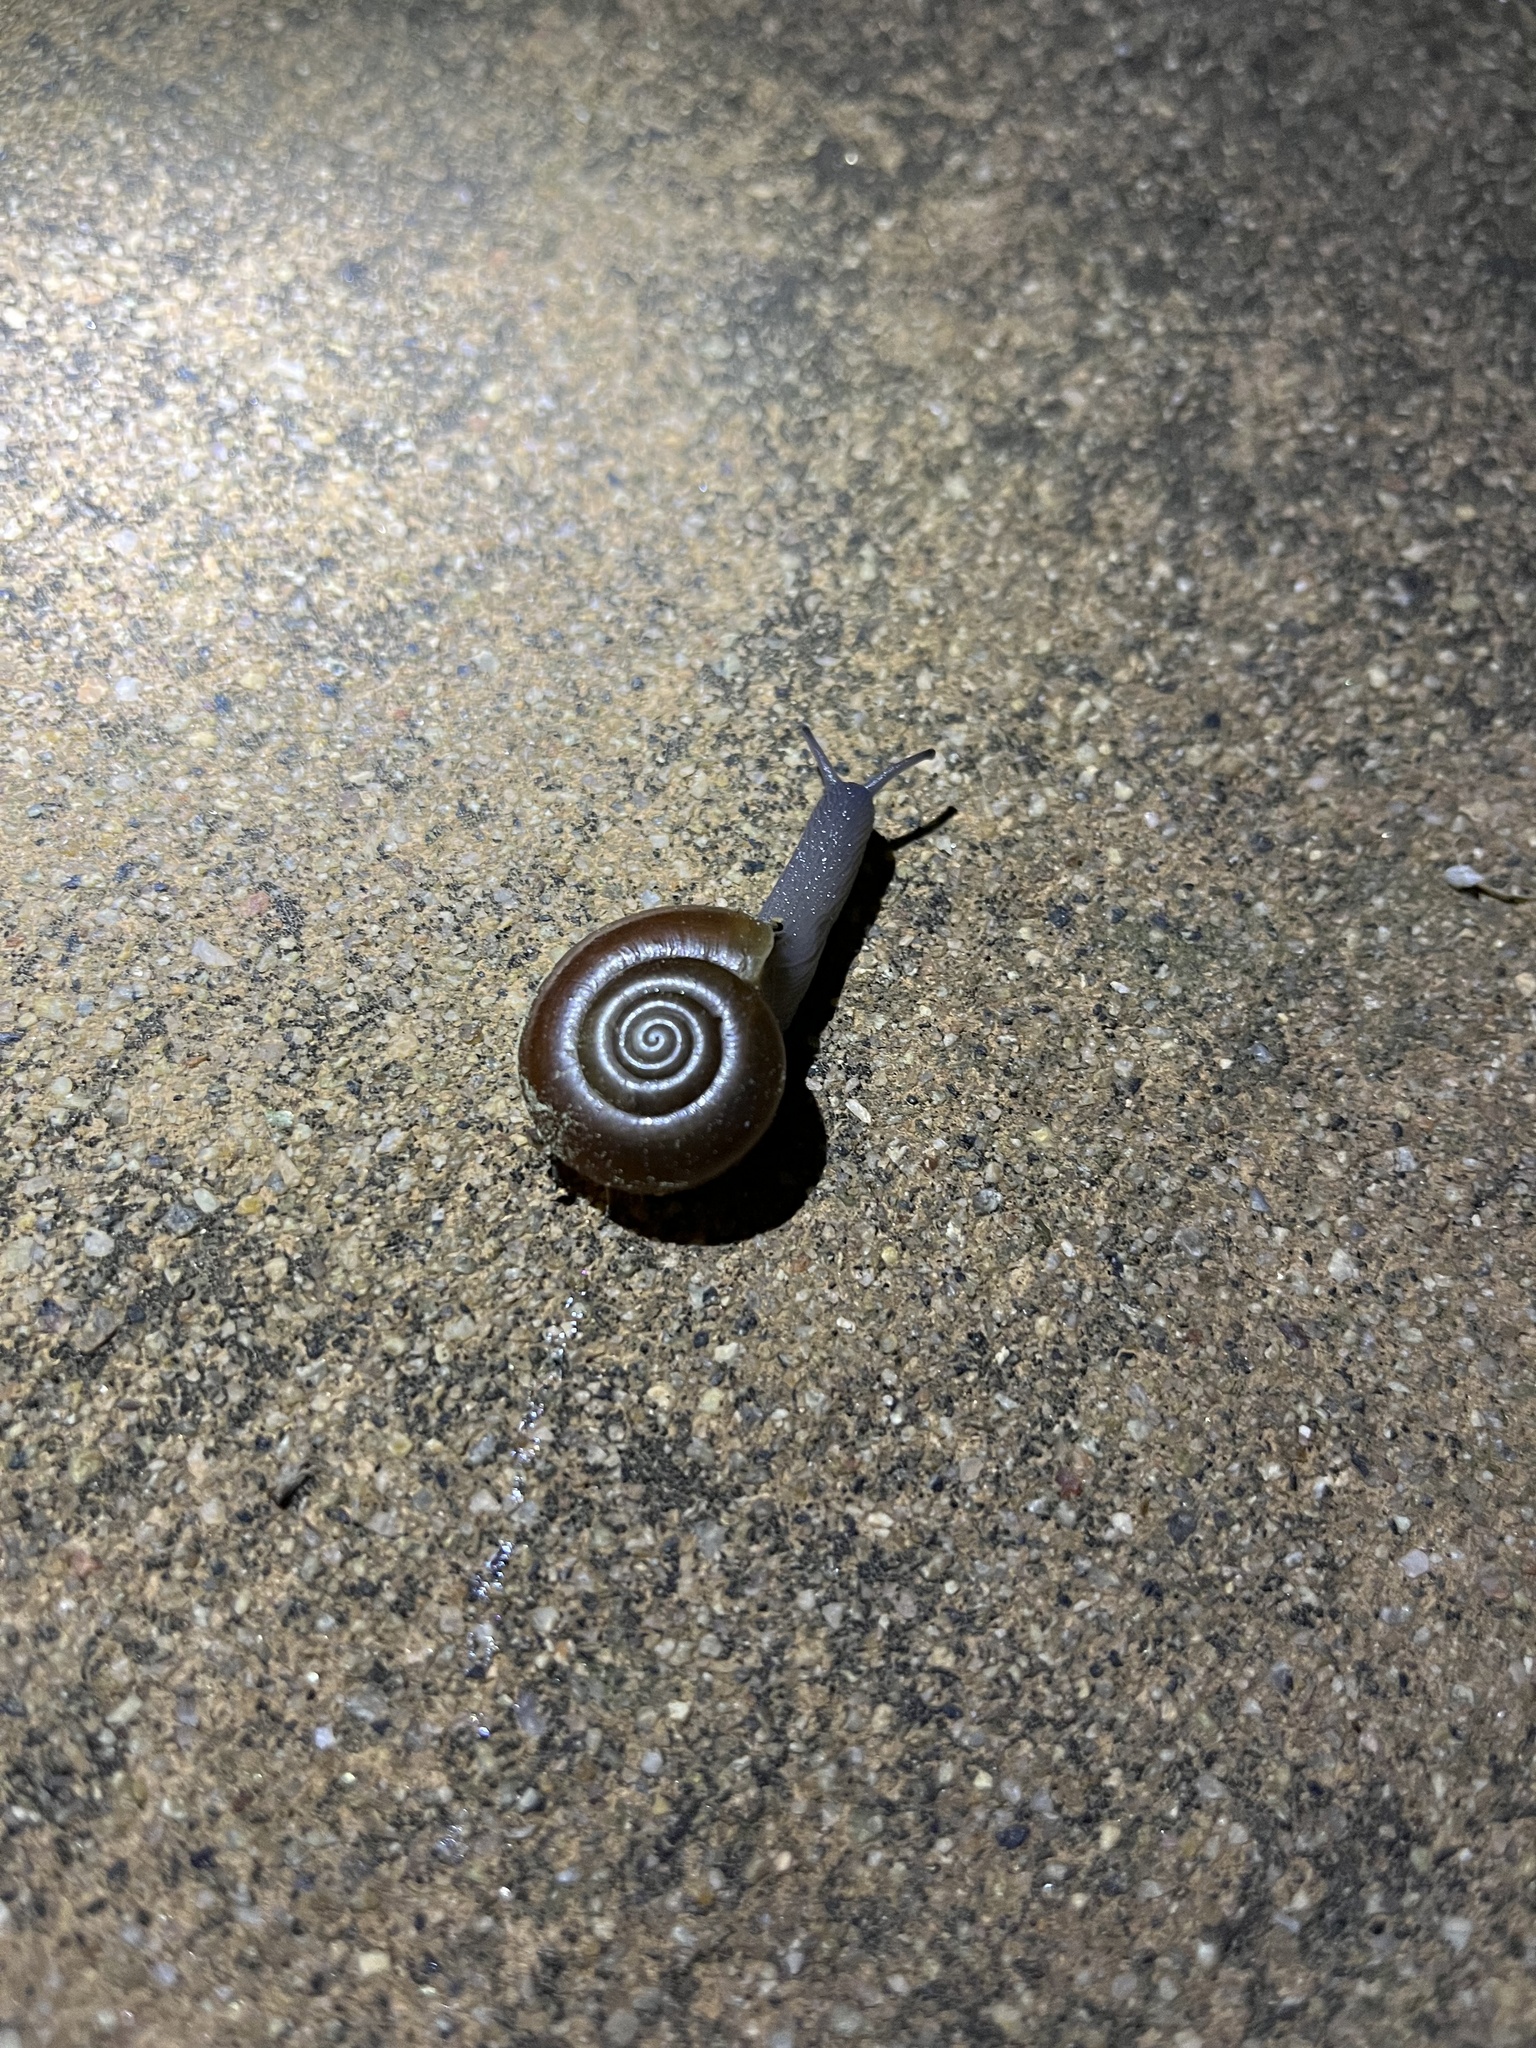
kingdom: Animalia
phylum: Mollusca
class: Gastropoda
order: Stylommatophora
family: Megomphicidae
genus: Glyptostoma
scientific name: Glyptostoma newberryanum
